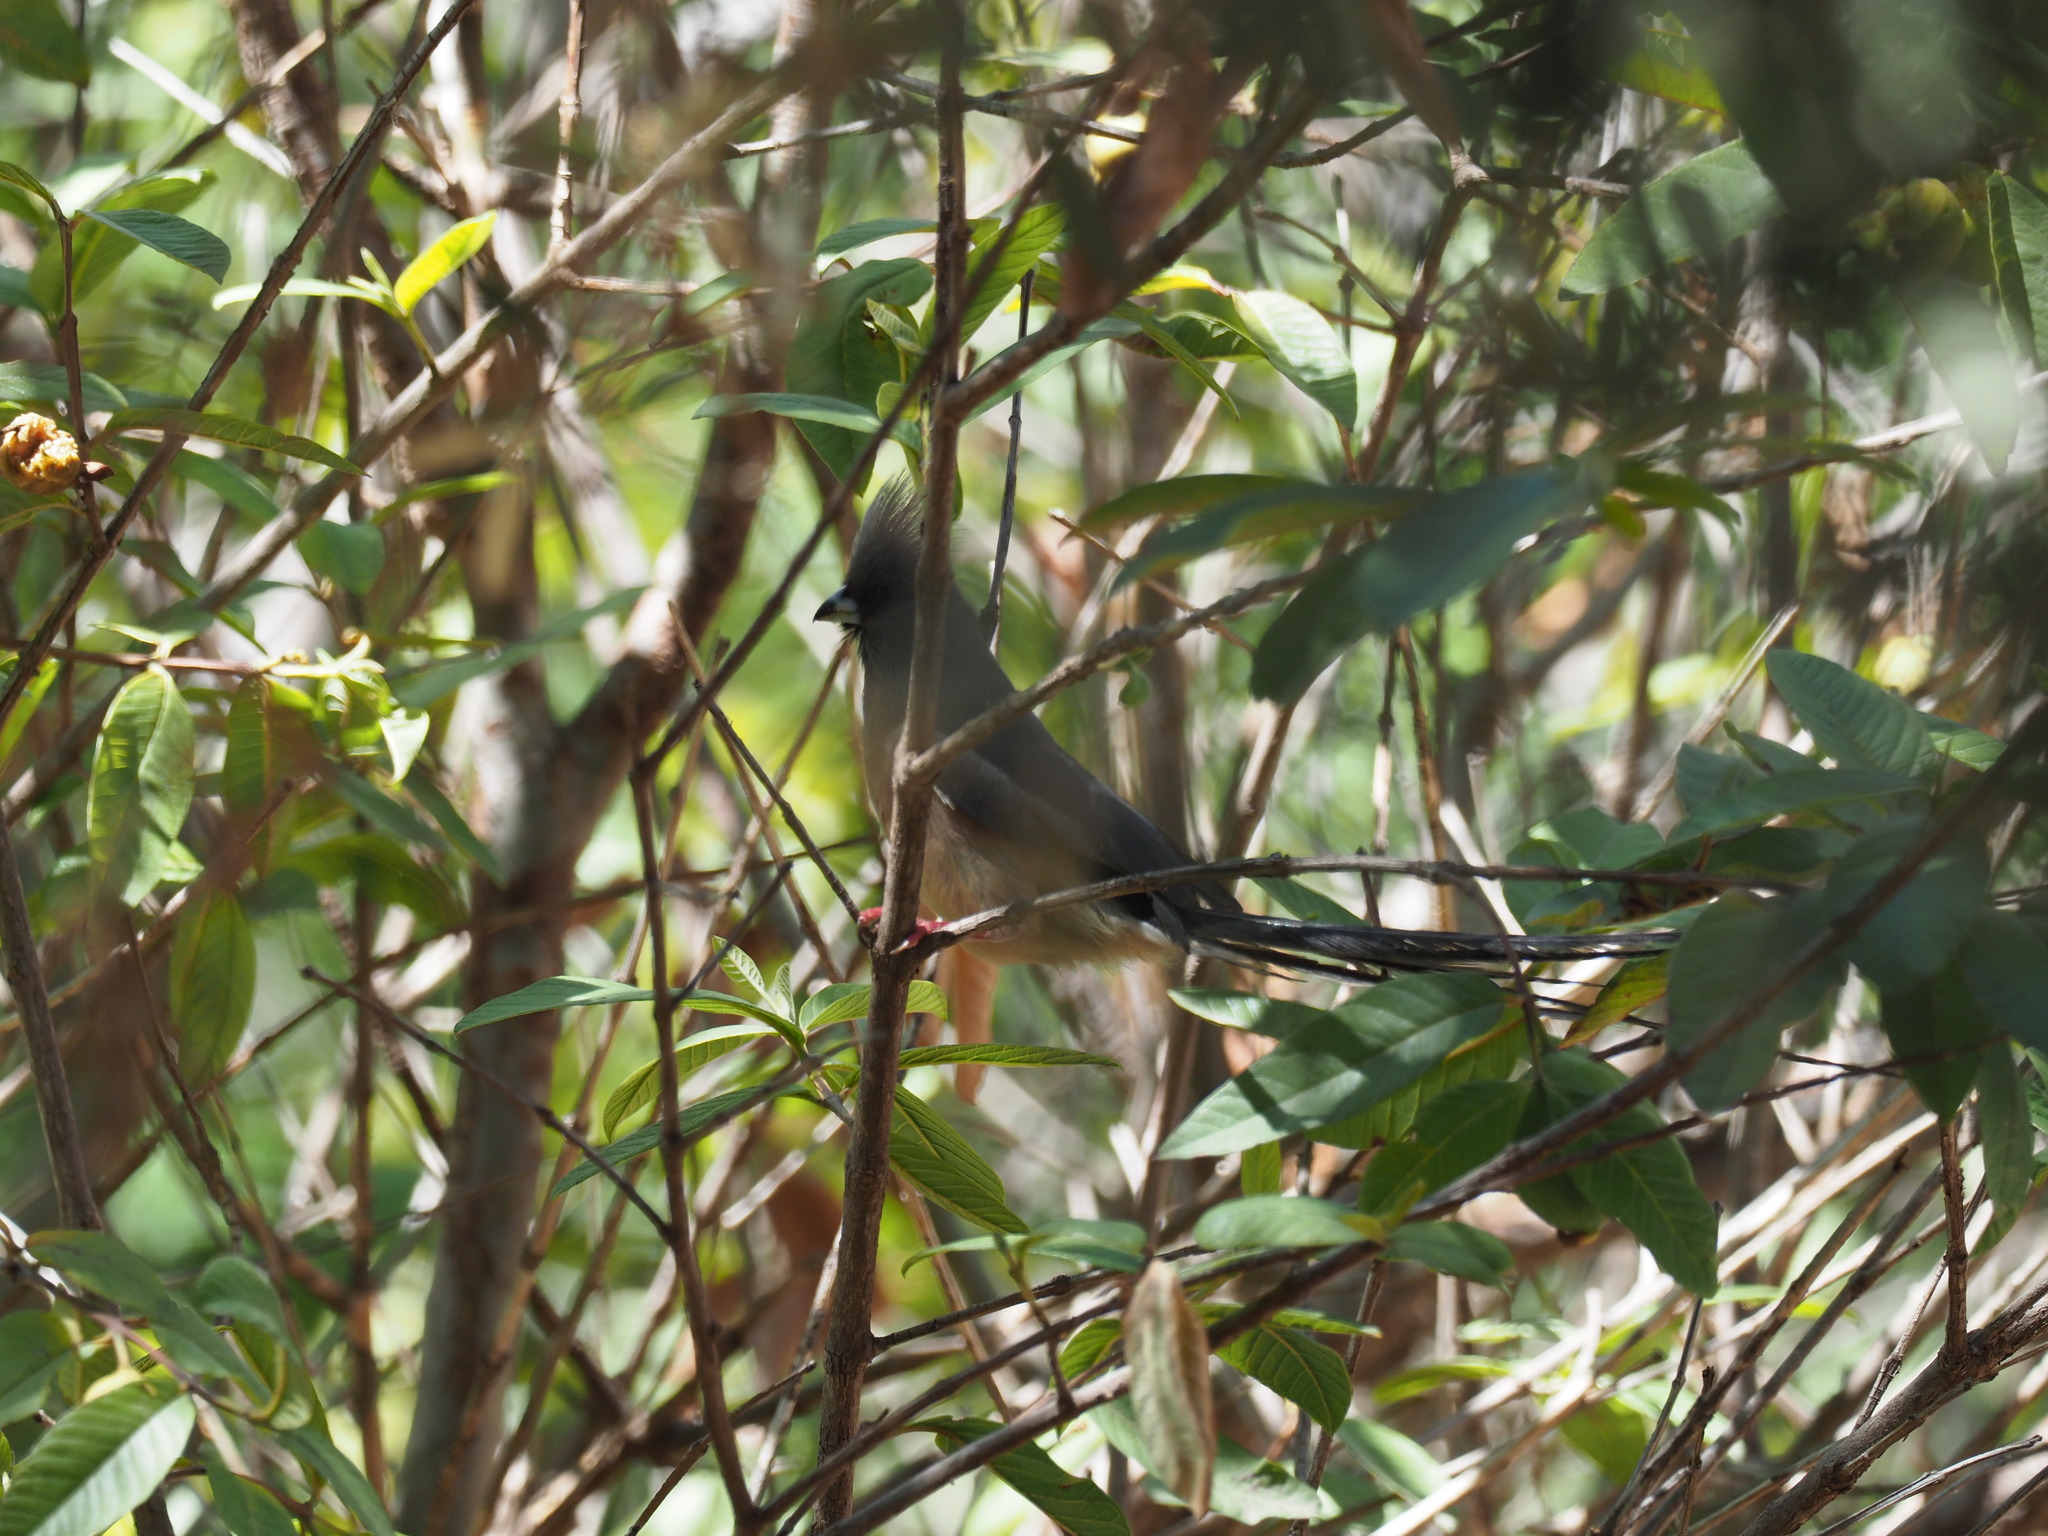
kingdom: Animalia
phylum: Chordata
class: Aves
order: Coliiformes
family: Coliidae
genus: Colius
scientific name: Colius colius
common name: White-backed mousebird
